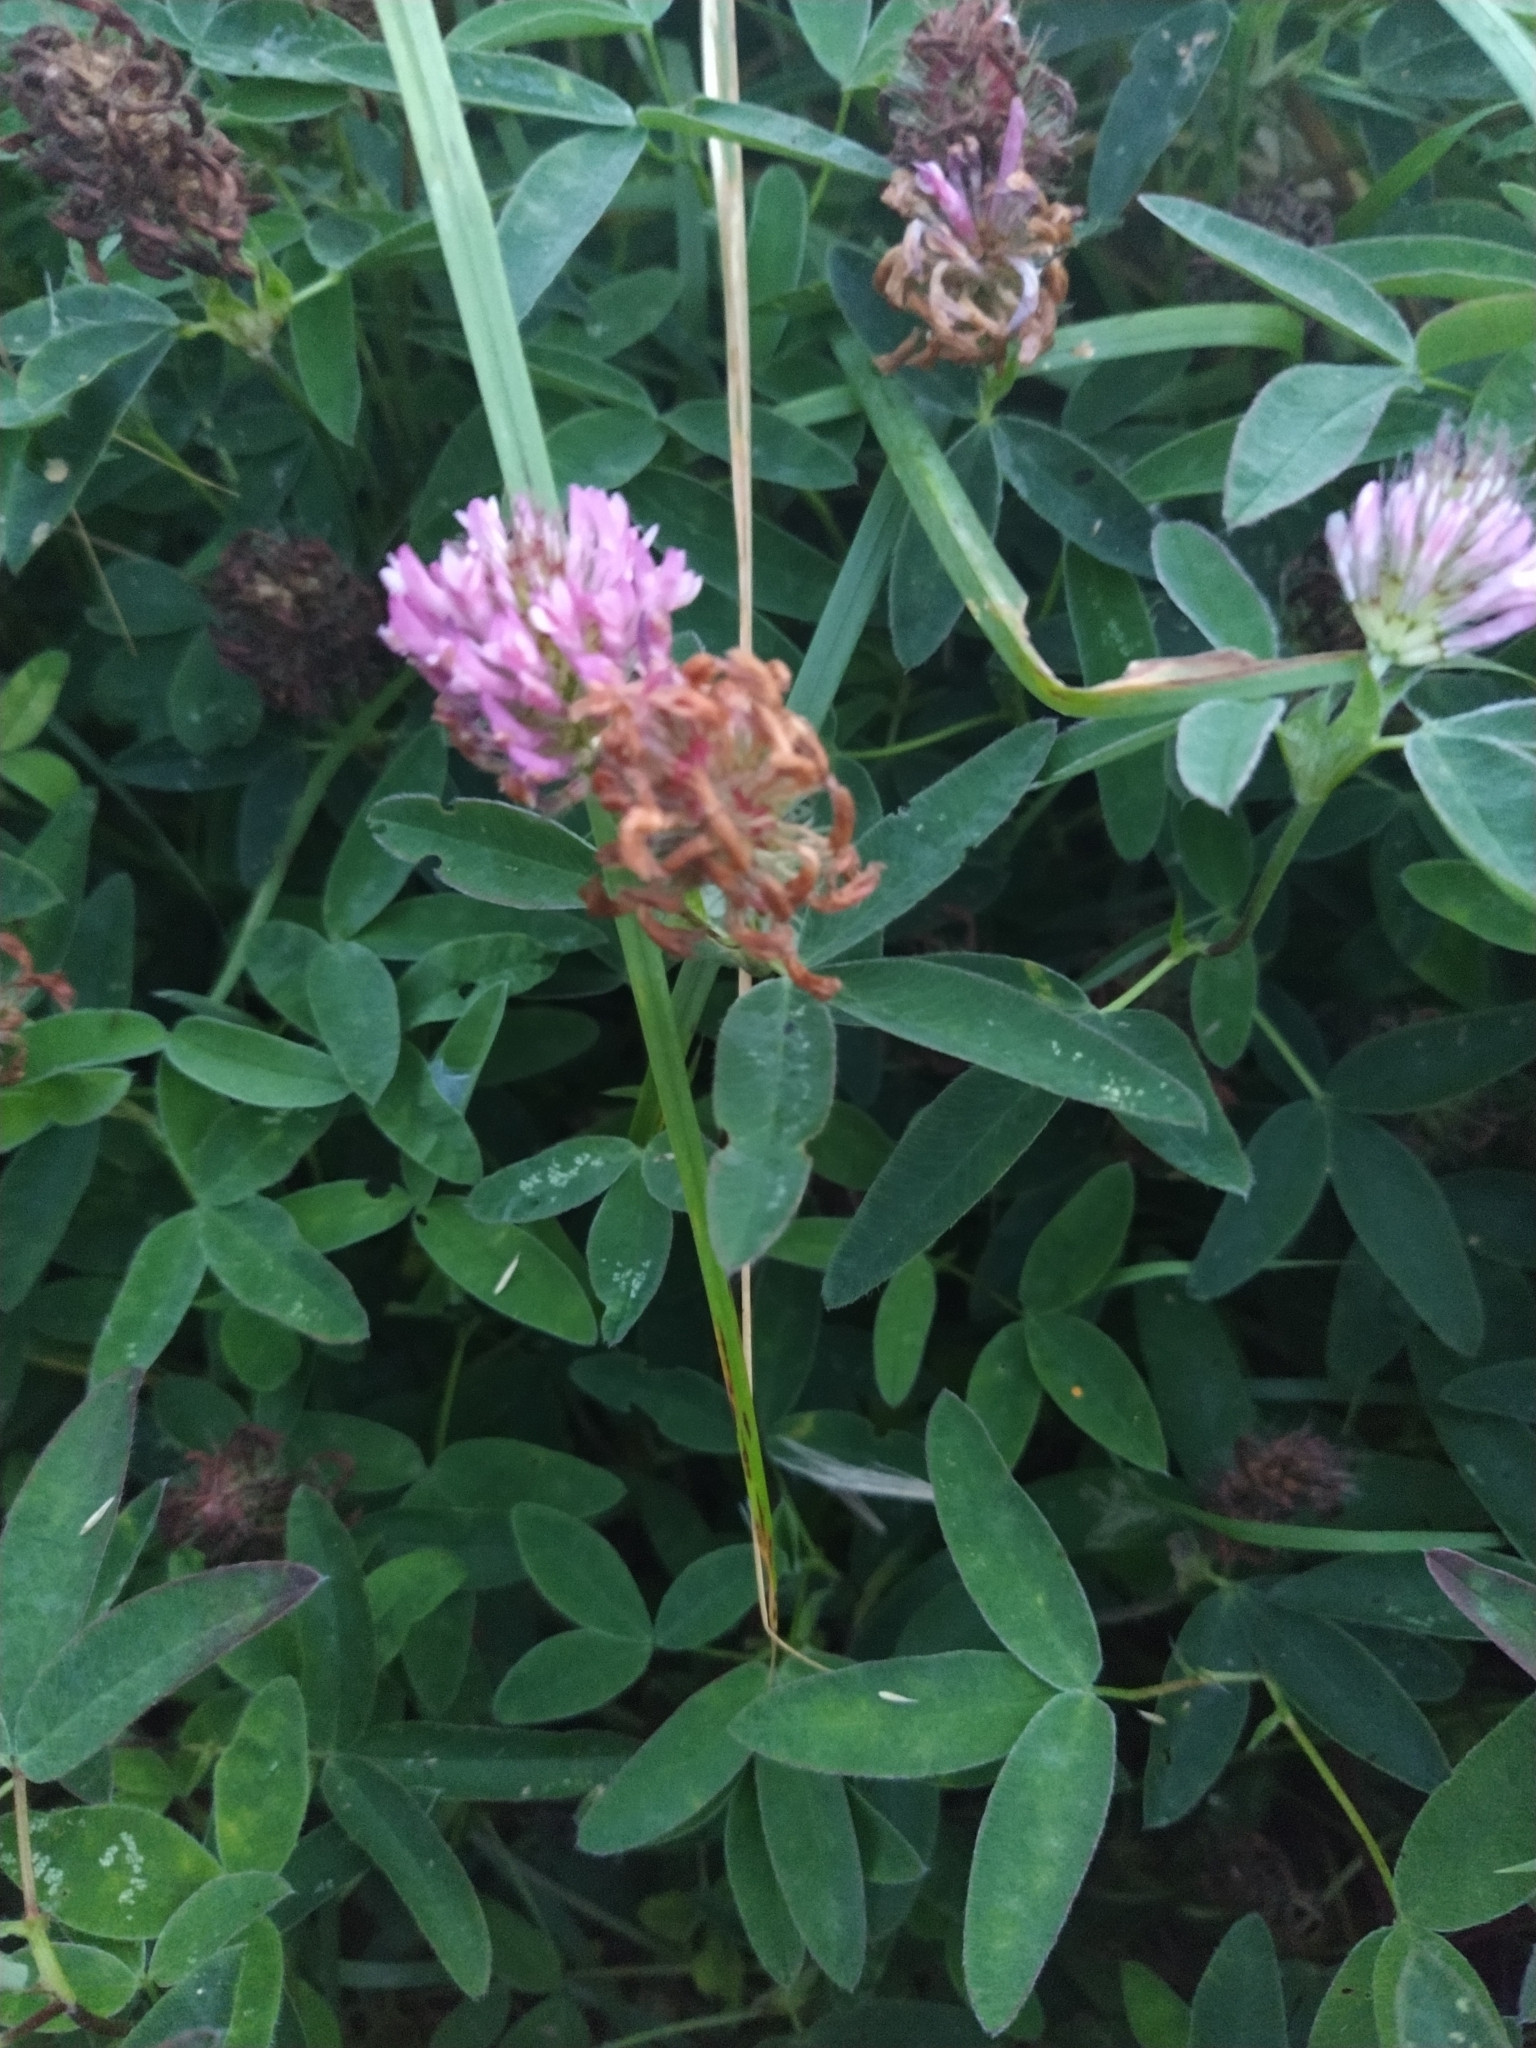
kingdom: Plantae
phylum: Tracheophyta
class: Magnoliopsida
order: Fabales
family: Fabaceae
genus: Trifolium
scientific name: Trifolium medium
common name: Zigzag clover
